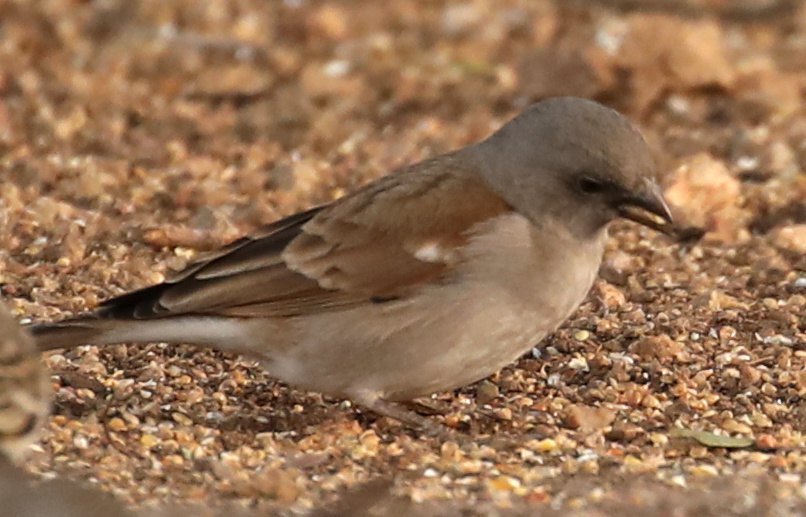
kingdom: Animalia
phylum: Chordata
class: Aves
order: Passeriformes
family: Passeridae
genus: Passer
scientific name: Passer diffusus
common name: Southern grey-headed sparrow
